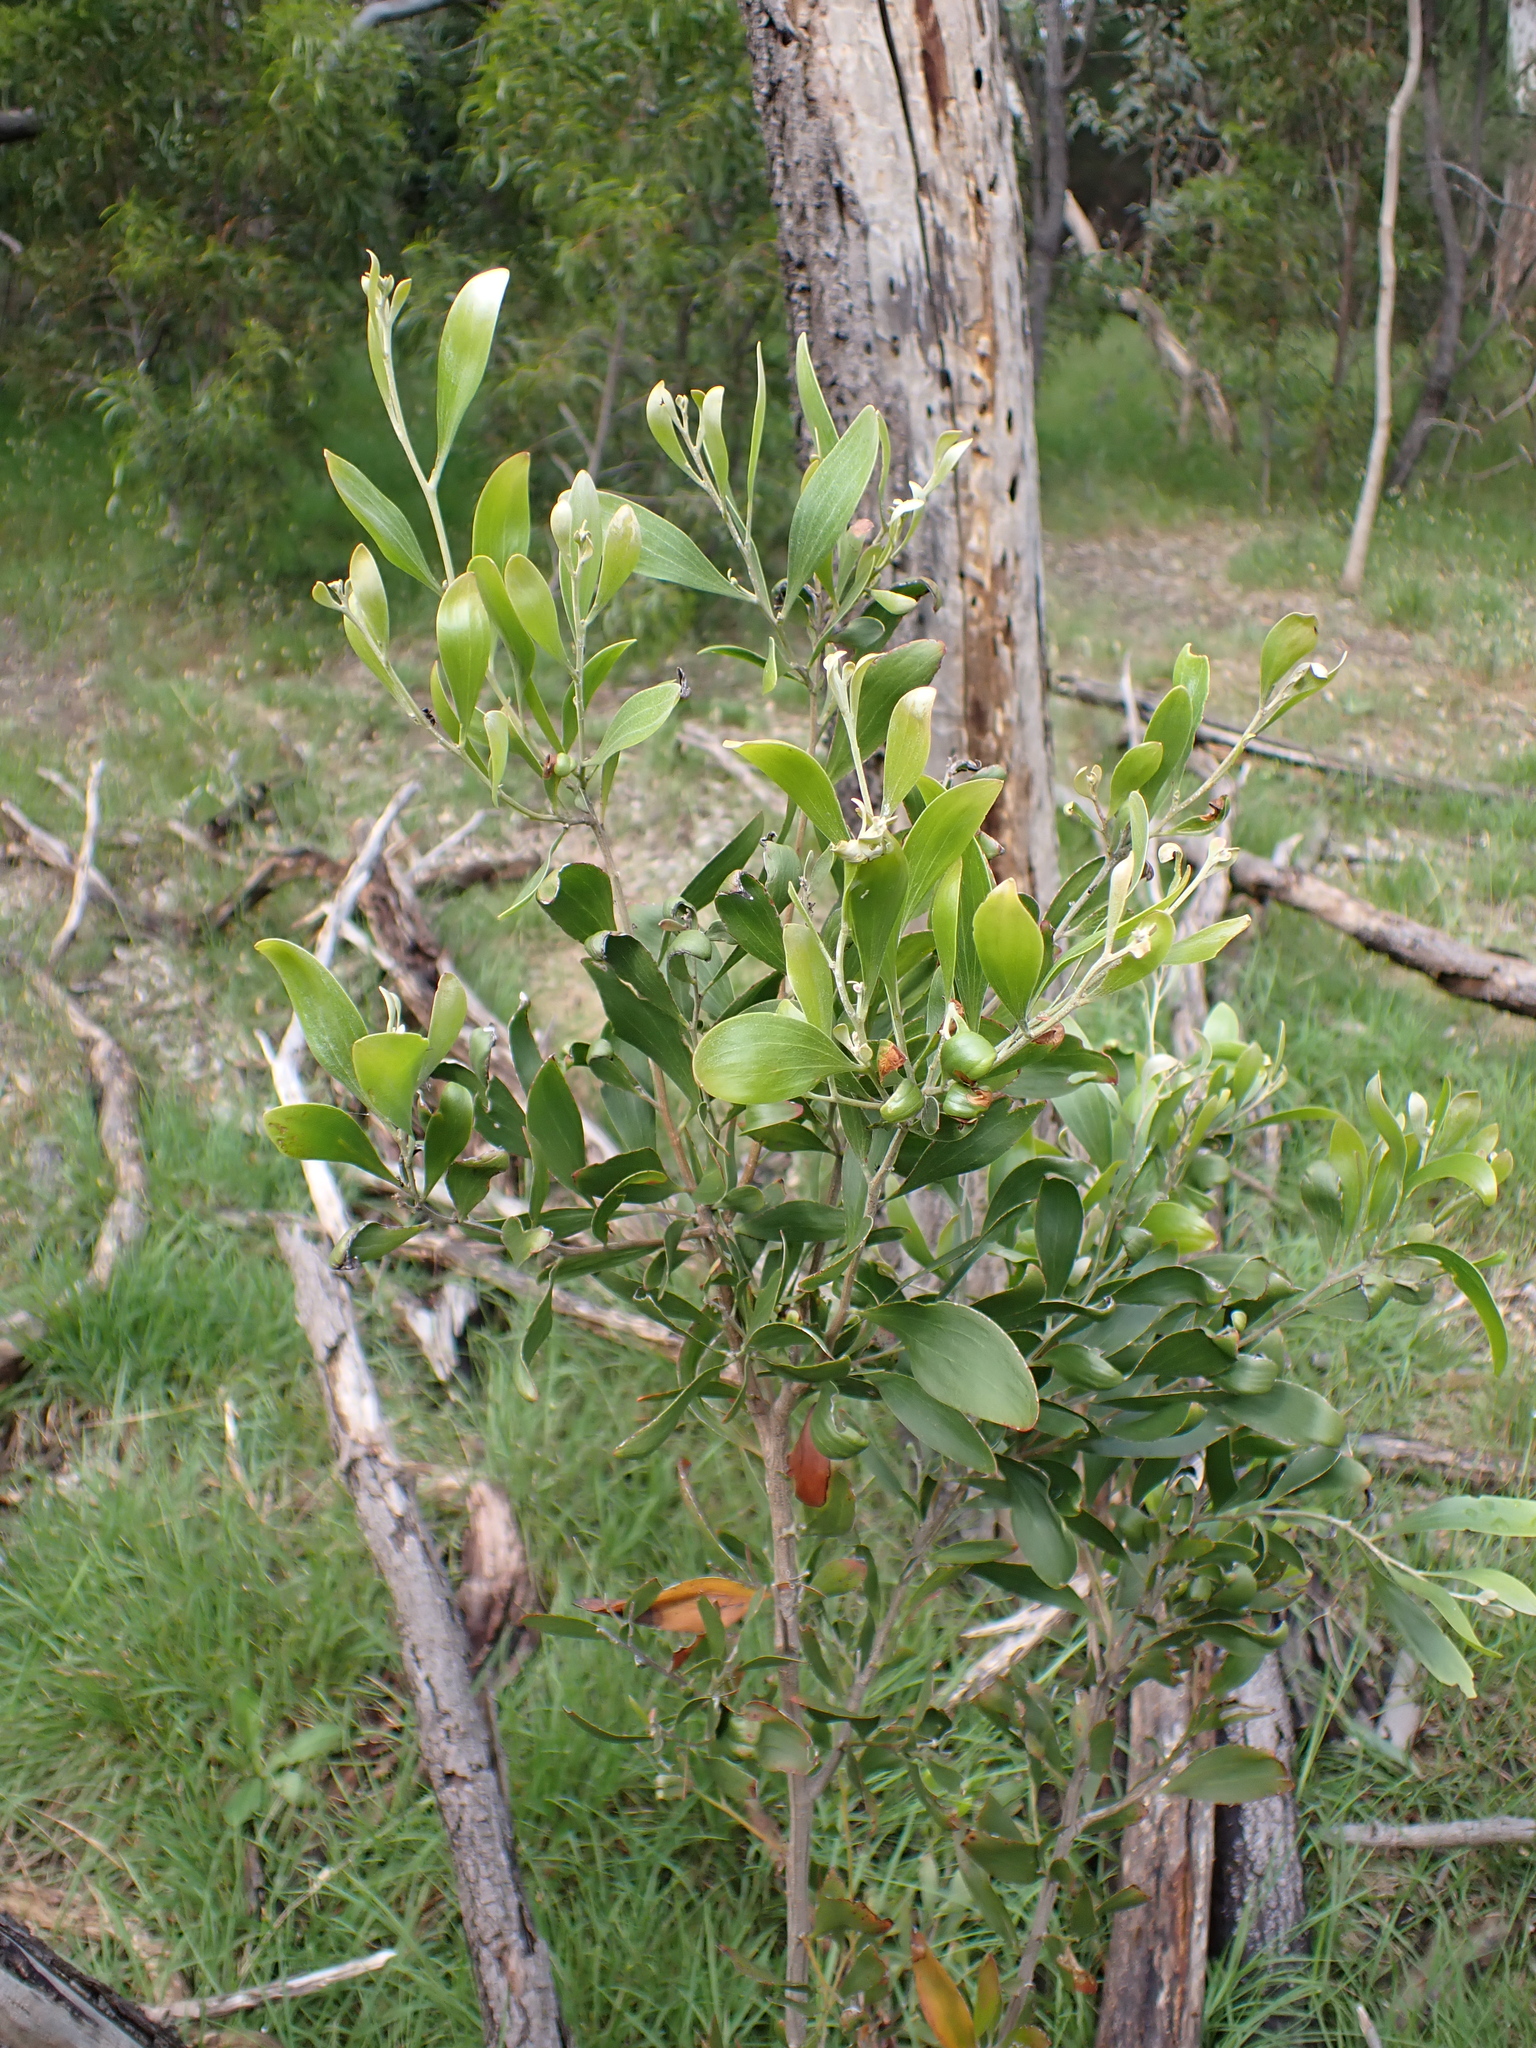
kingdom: Plantae
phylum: Tracheophyta
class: Magnoliopsida
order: Fabales
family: Fabaceae
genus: Acacia
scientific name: Acacia melanoxylon
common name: Blackwood
